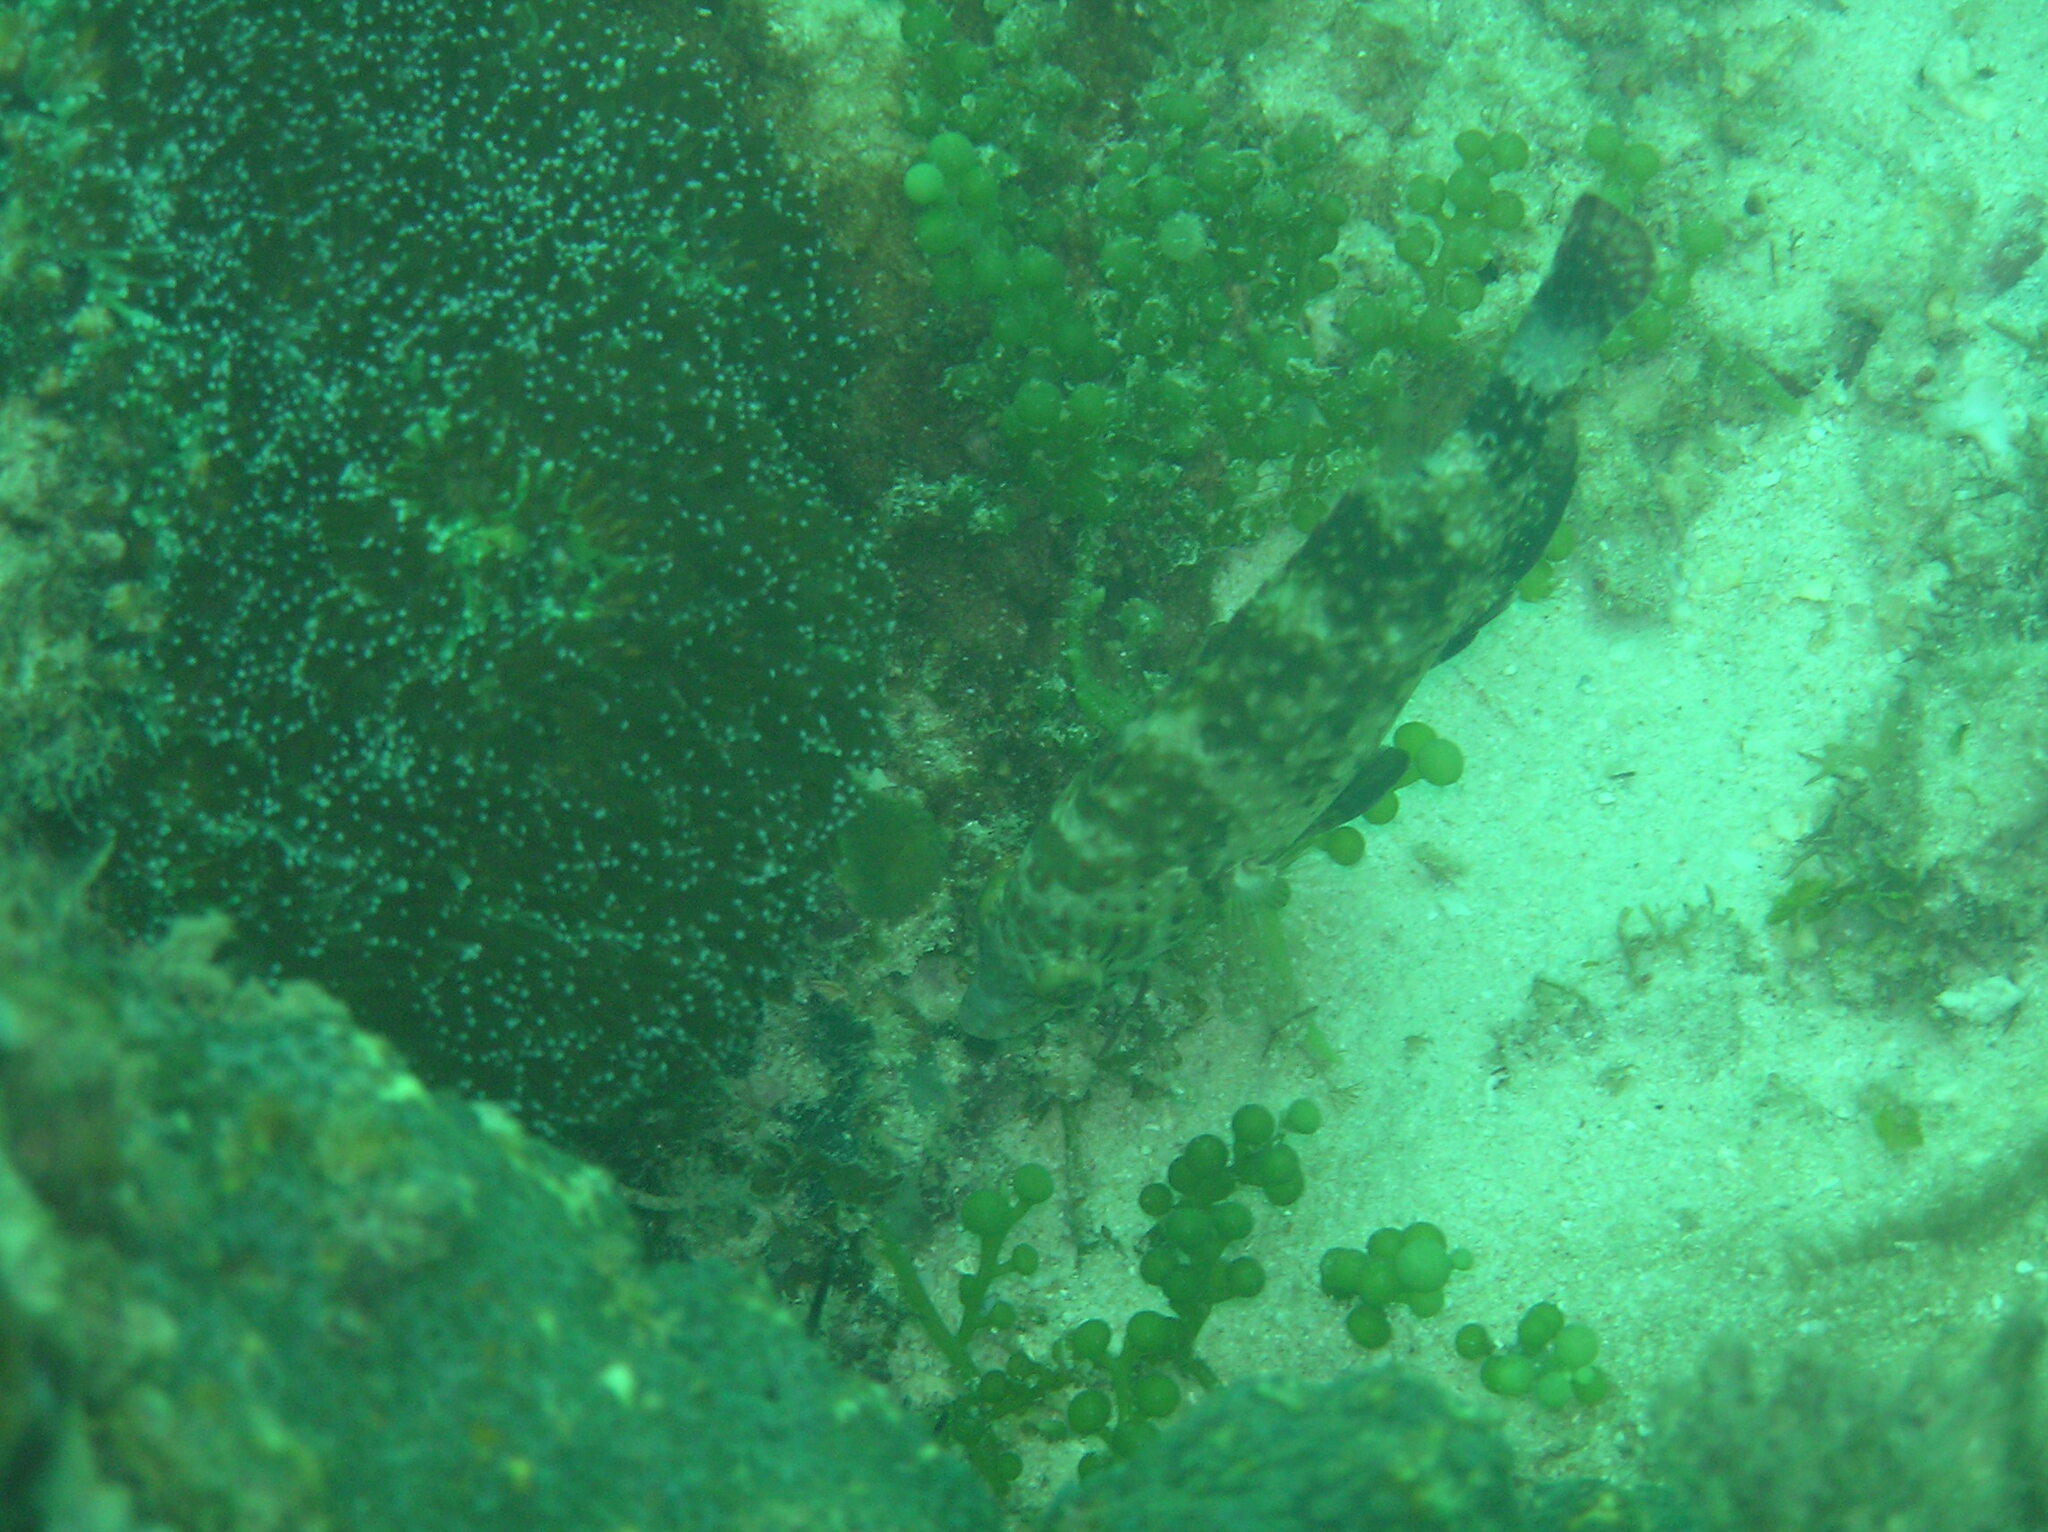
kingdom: Animalia
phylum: Chordata
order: Perciformes
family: Labridae
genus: Cheilinus
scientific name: Cheilinus chlorourus
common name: Floral wrasse
